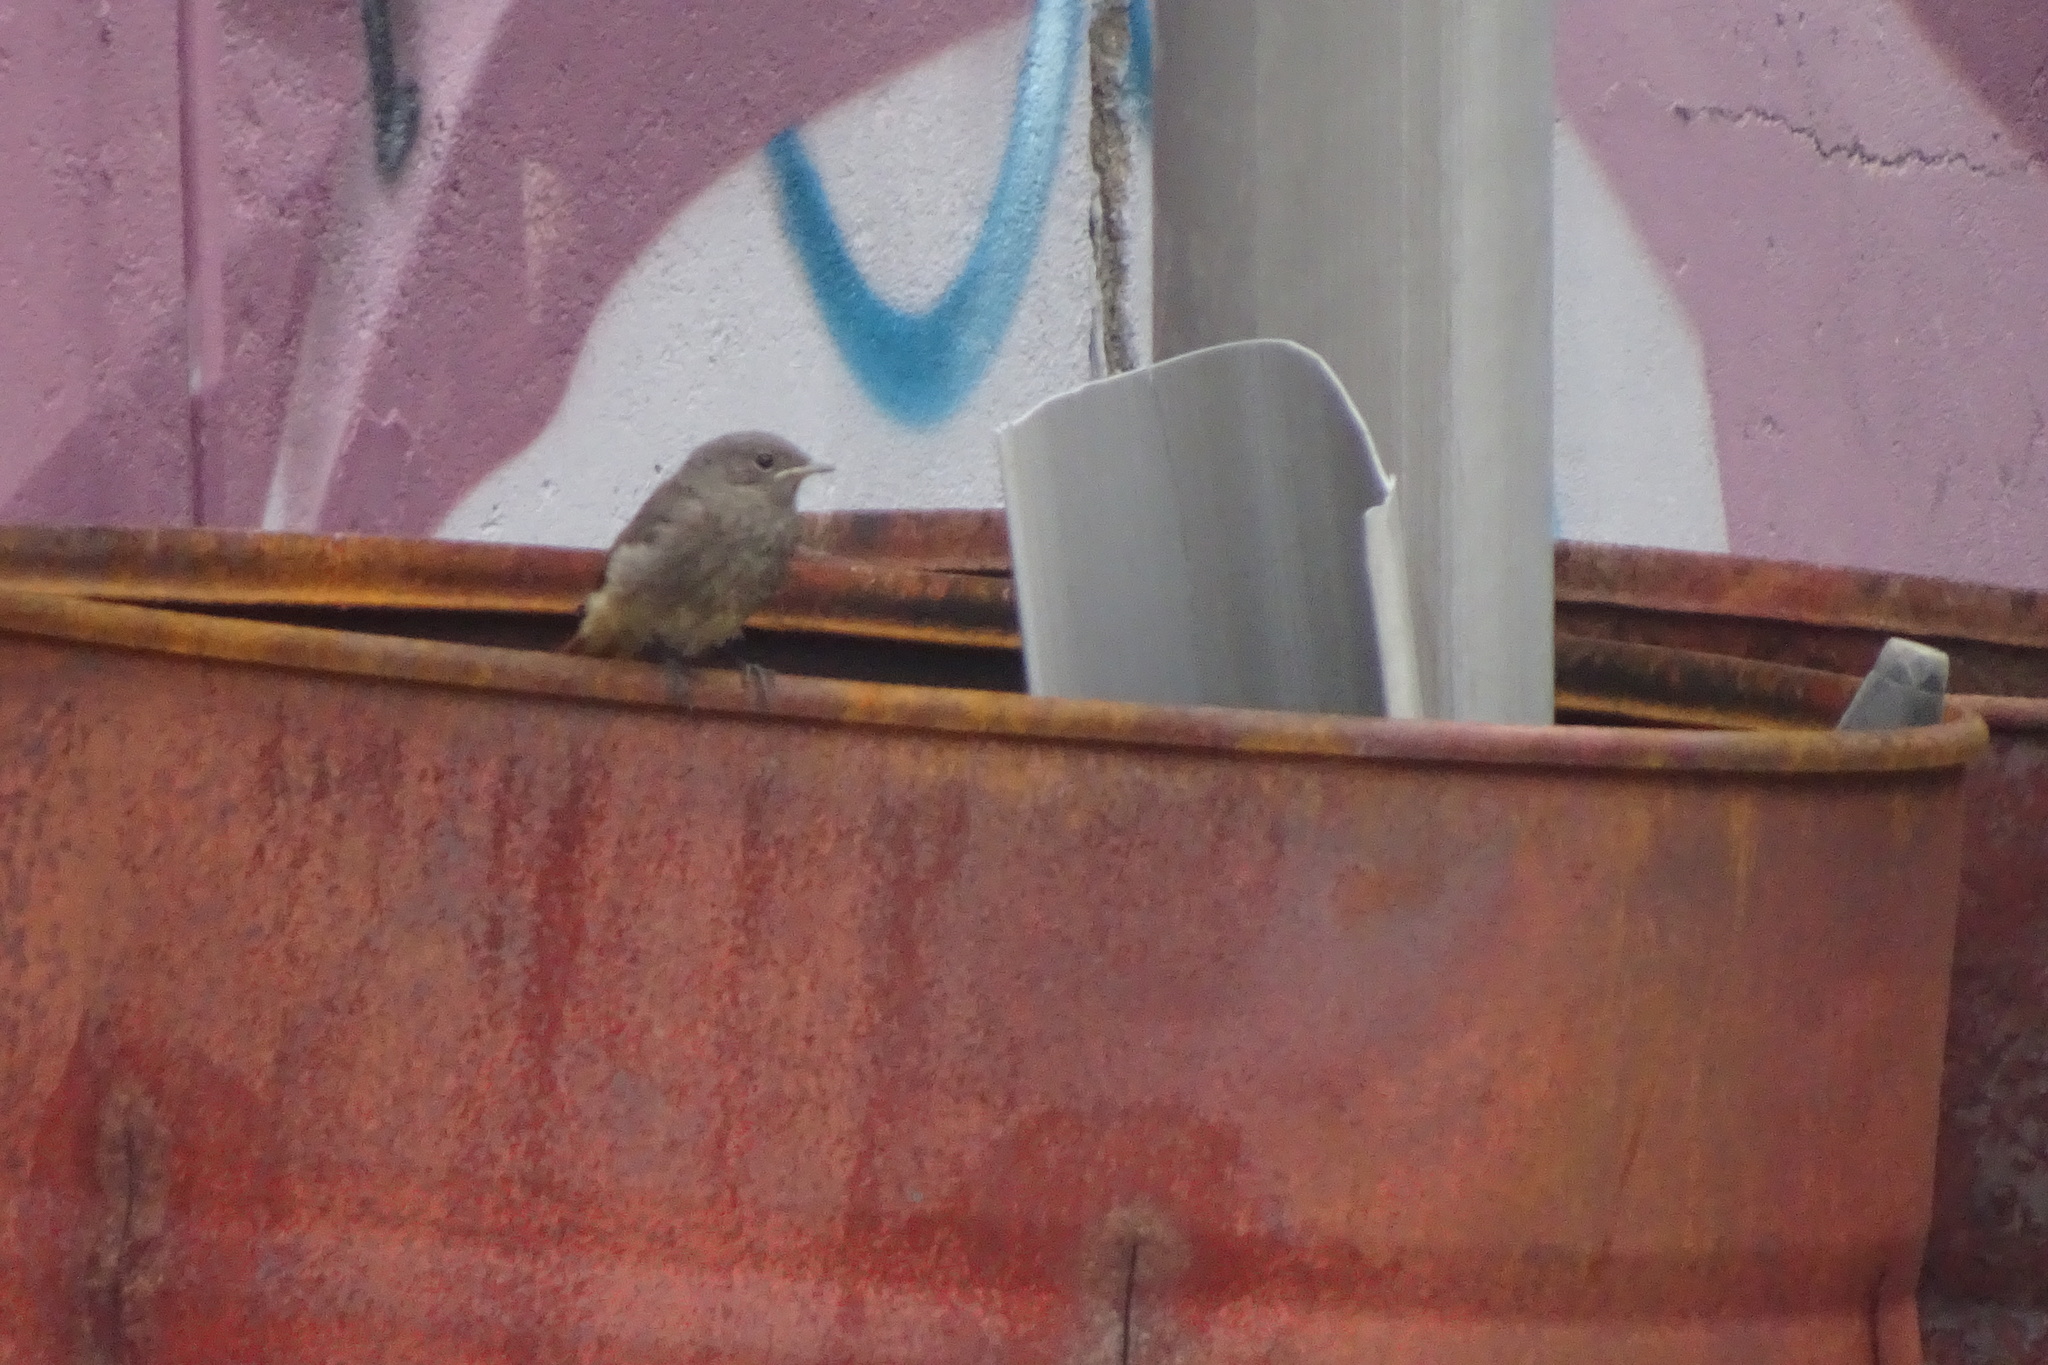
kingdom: Animalia
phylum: Chordata
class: Aves
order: Passeriformes
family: Muscicapidae
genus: Phoenicurus
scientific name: Phoenicurus ochruros
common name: Black redstart
